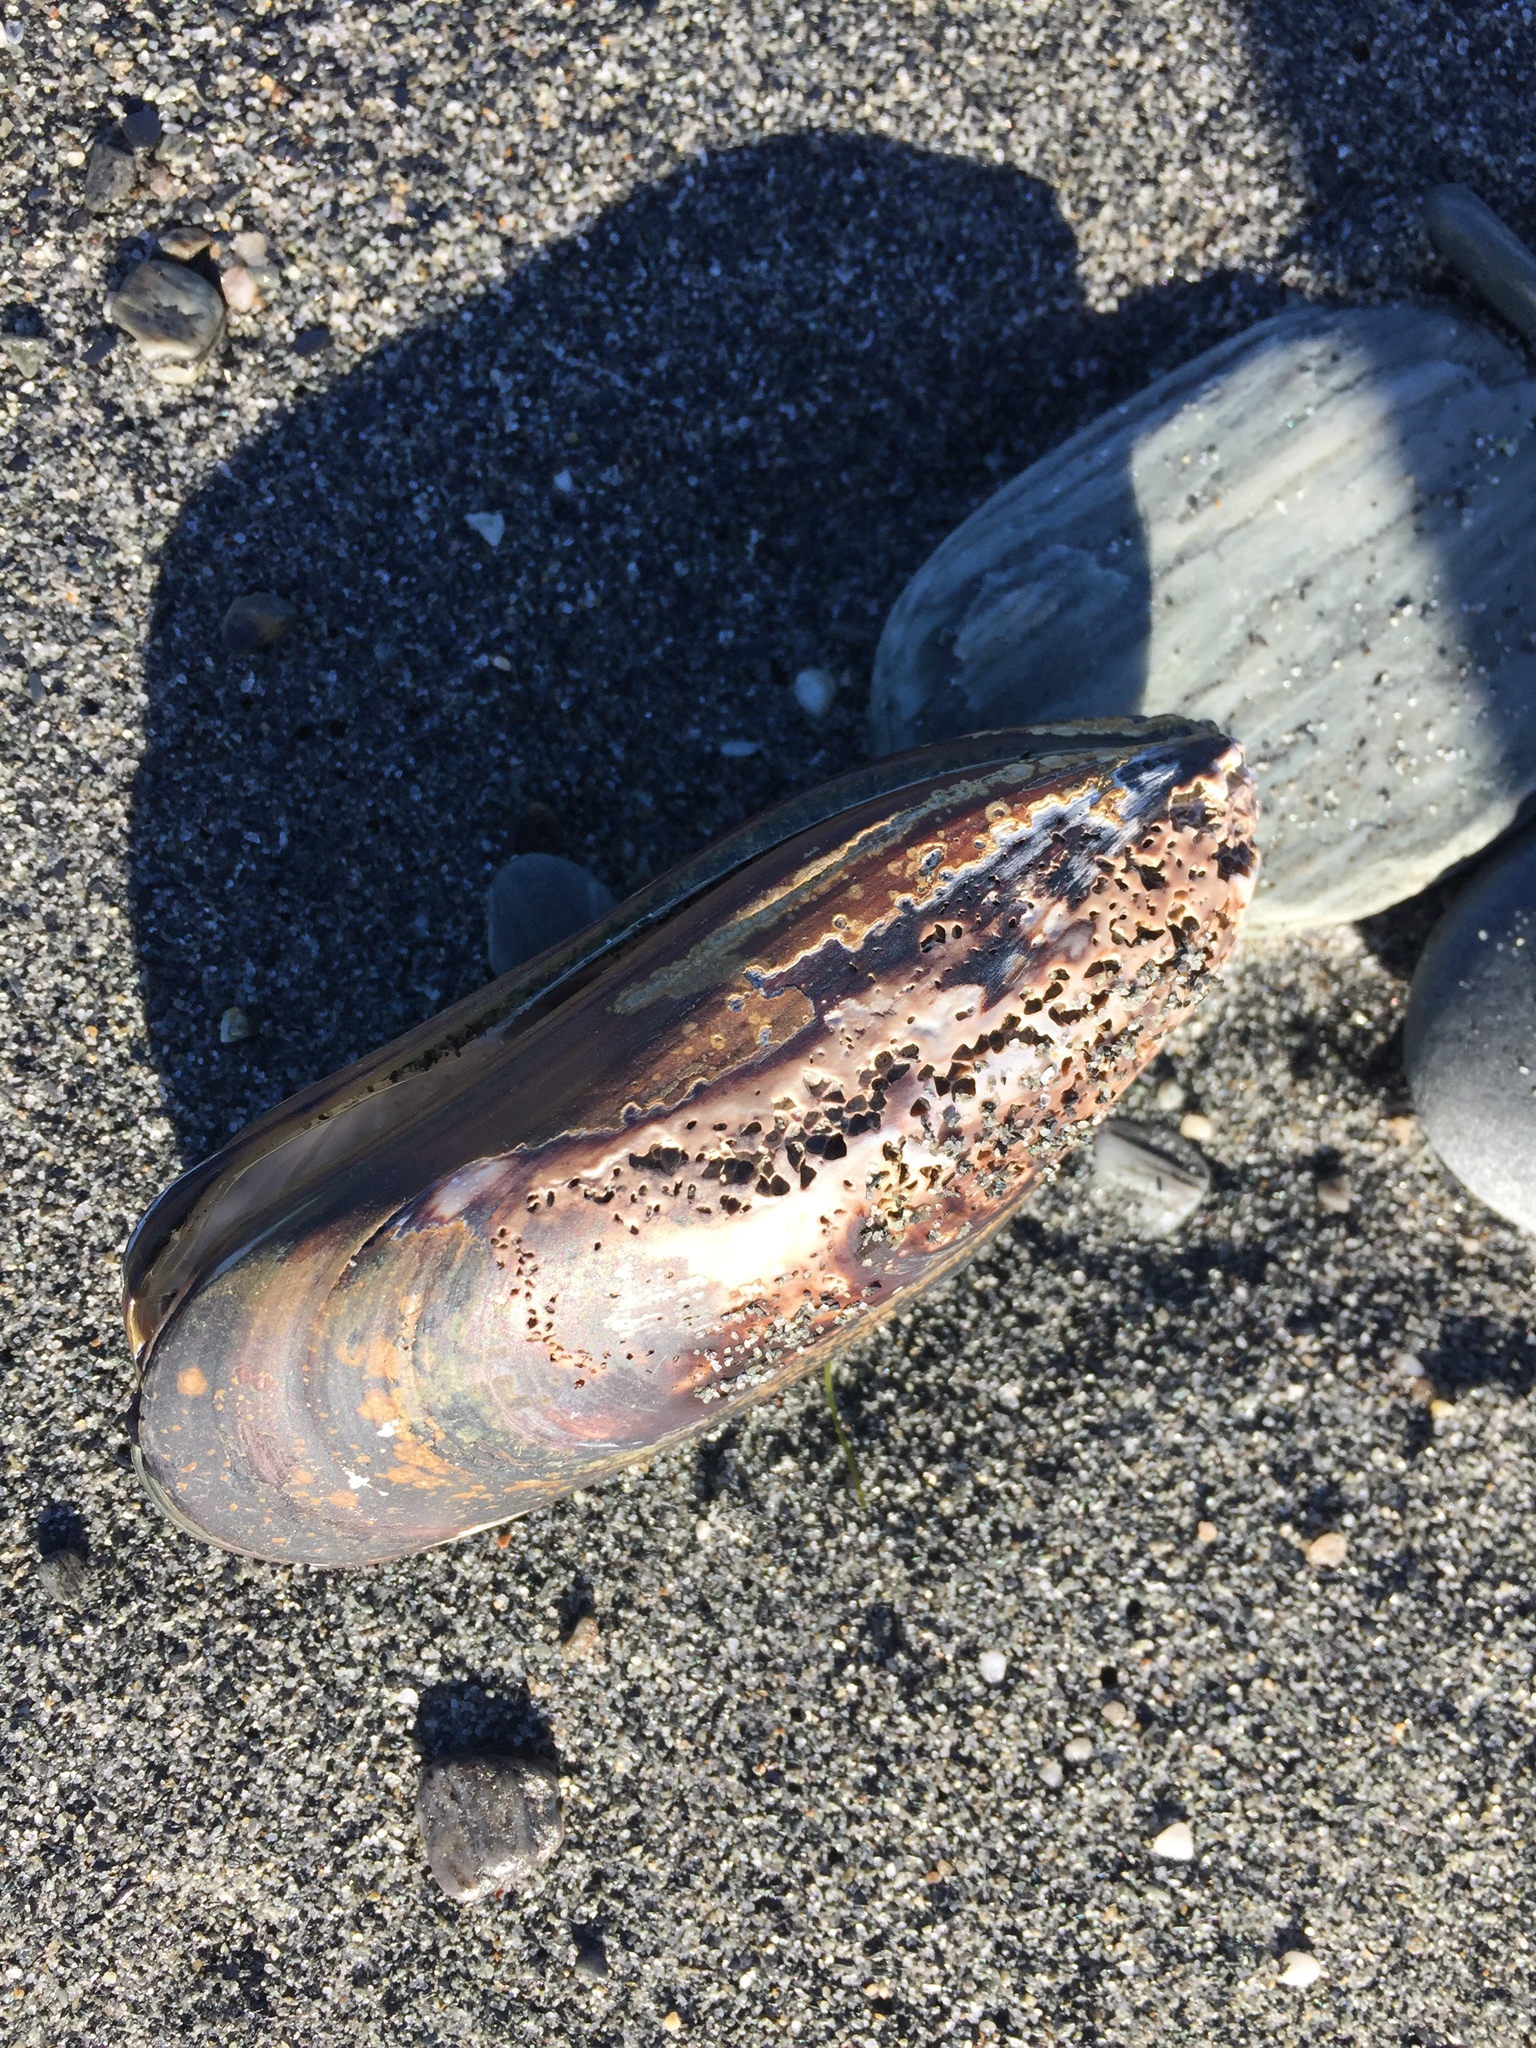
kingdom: Animalia
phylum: Mollusca
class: Bivalvia
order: Mytilida
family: Mytilidae
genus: Perna
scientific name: Perna canaliculus
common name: New zealand greenshelltm
